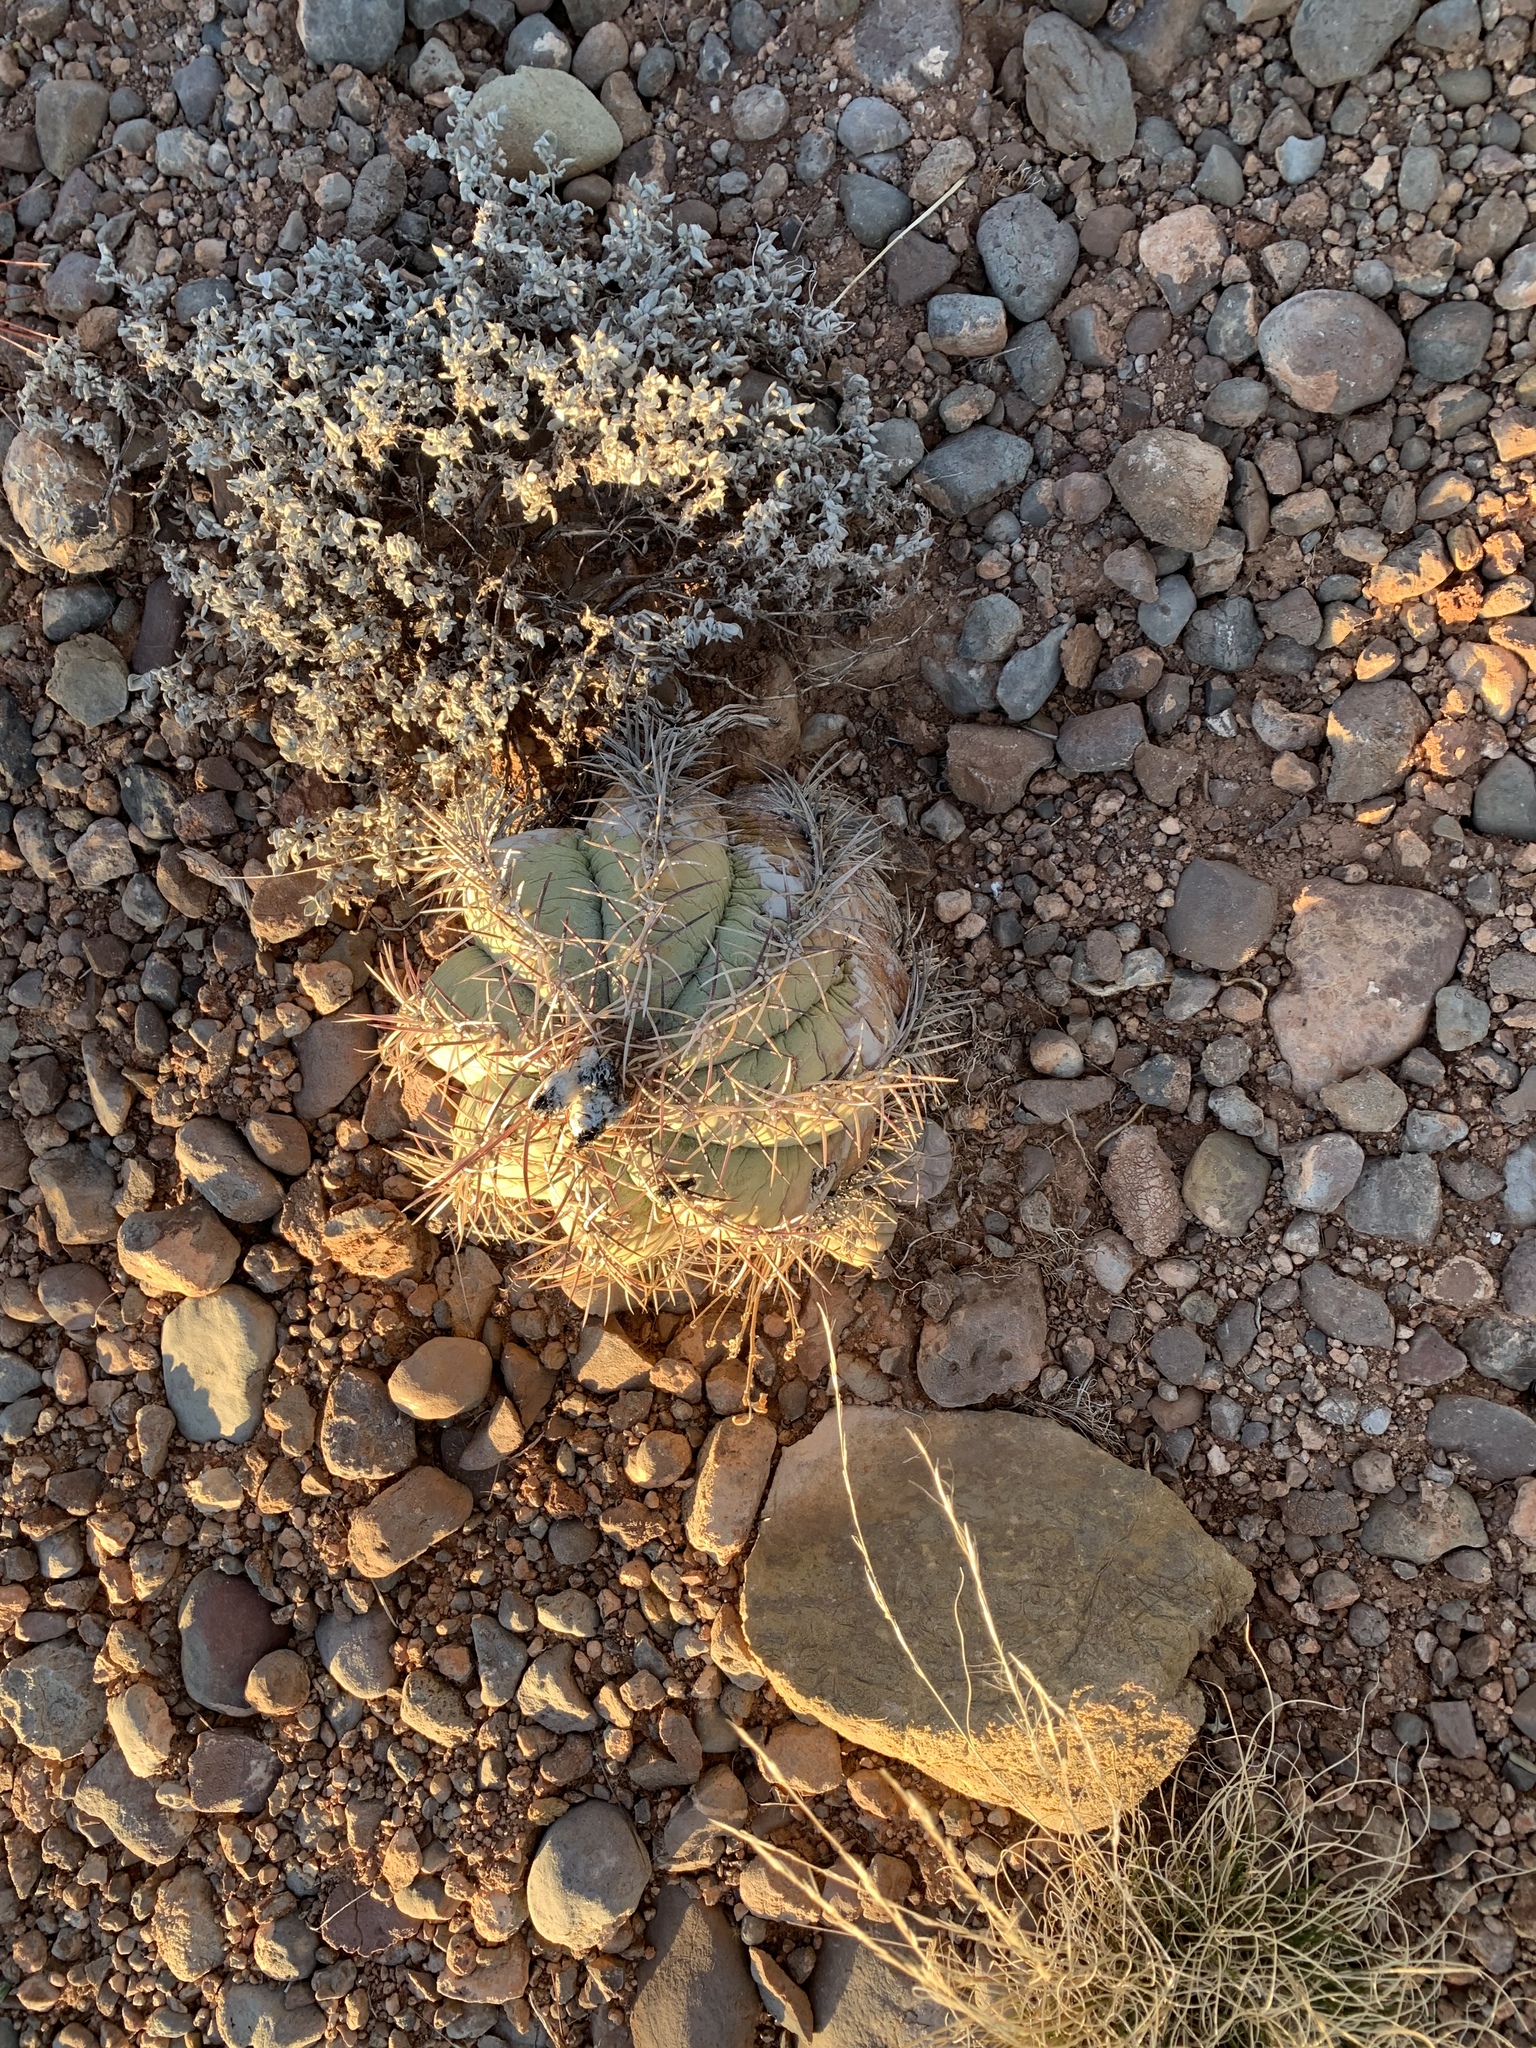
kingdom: Plantae
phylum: Tracheophyta
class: Magnoliopsida
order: Caryophyllales
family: Cactaceae
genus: Echinocactus
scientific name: Echinocactus horizonthalonius
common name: Devilshead
